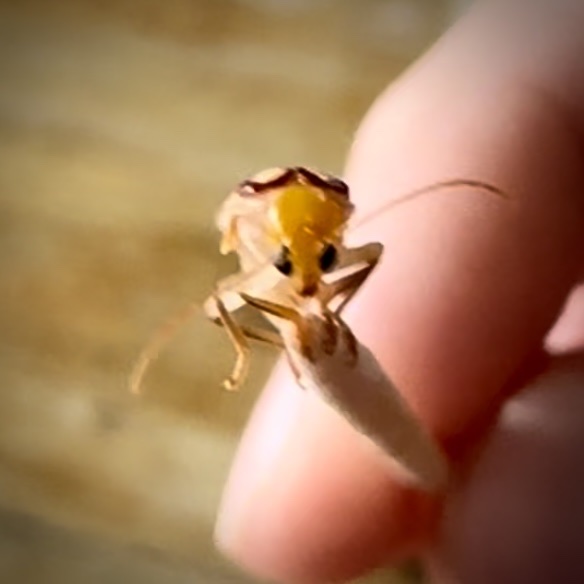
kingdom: Animalia
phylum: Arthropoda
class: Insecta
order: Coleoptera
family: Chrysomelidae
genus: Paranapiacaba
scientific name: Paranapiacaba
